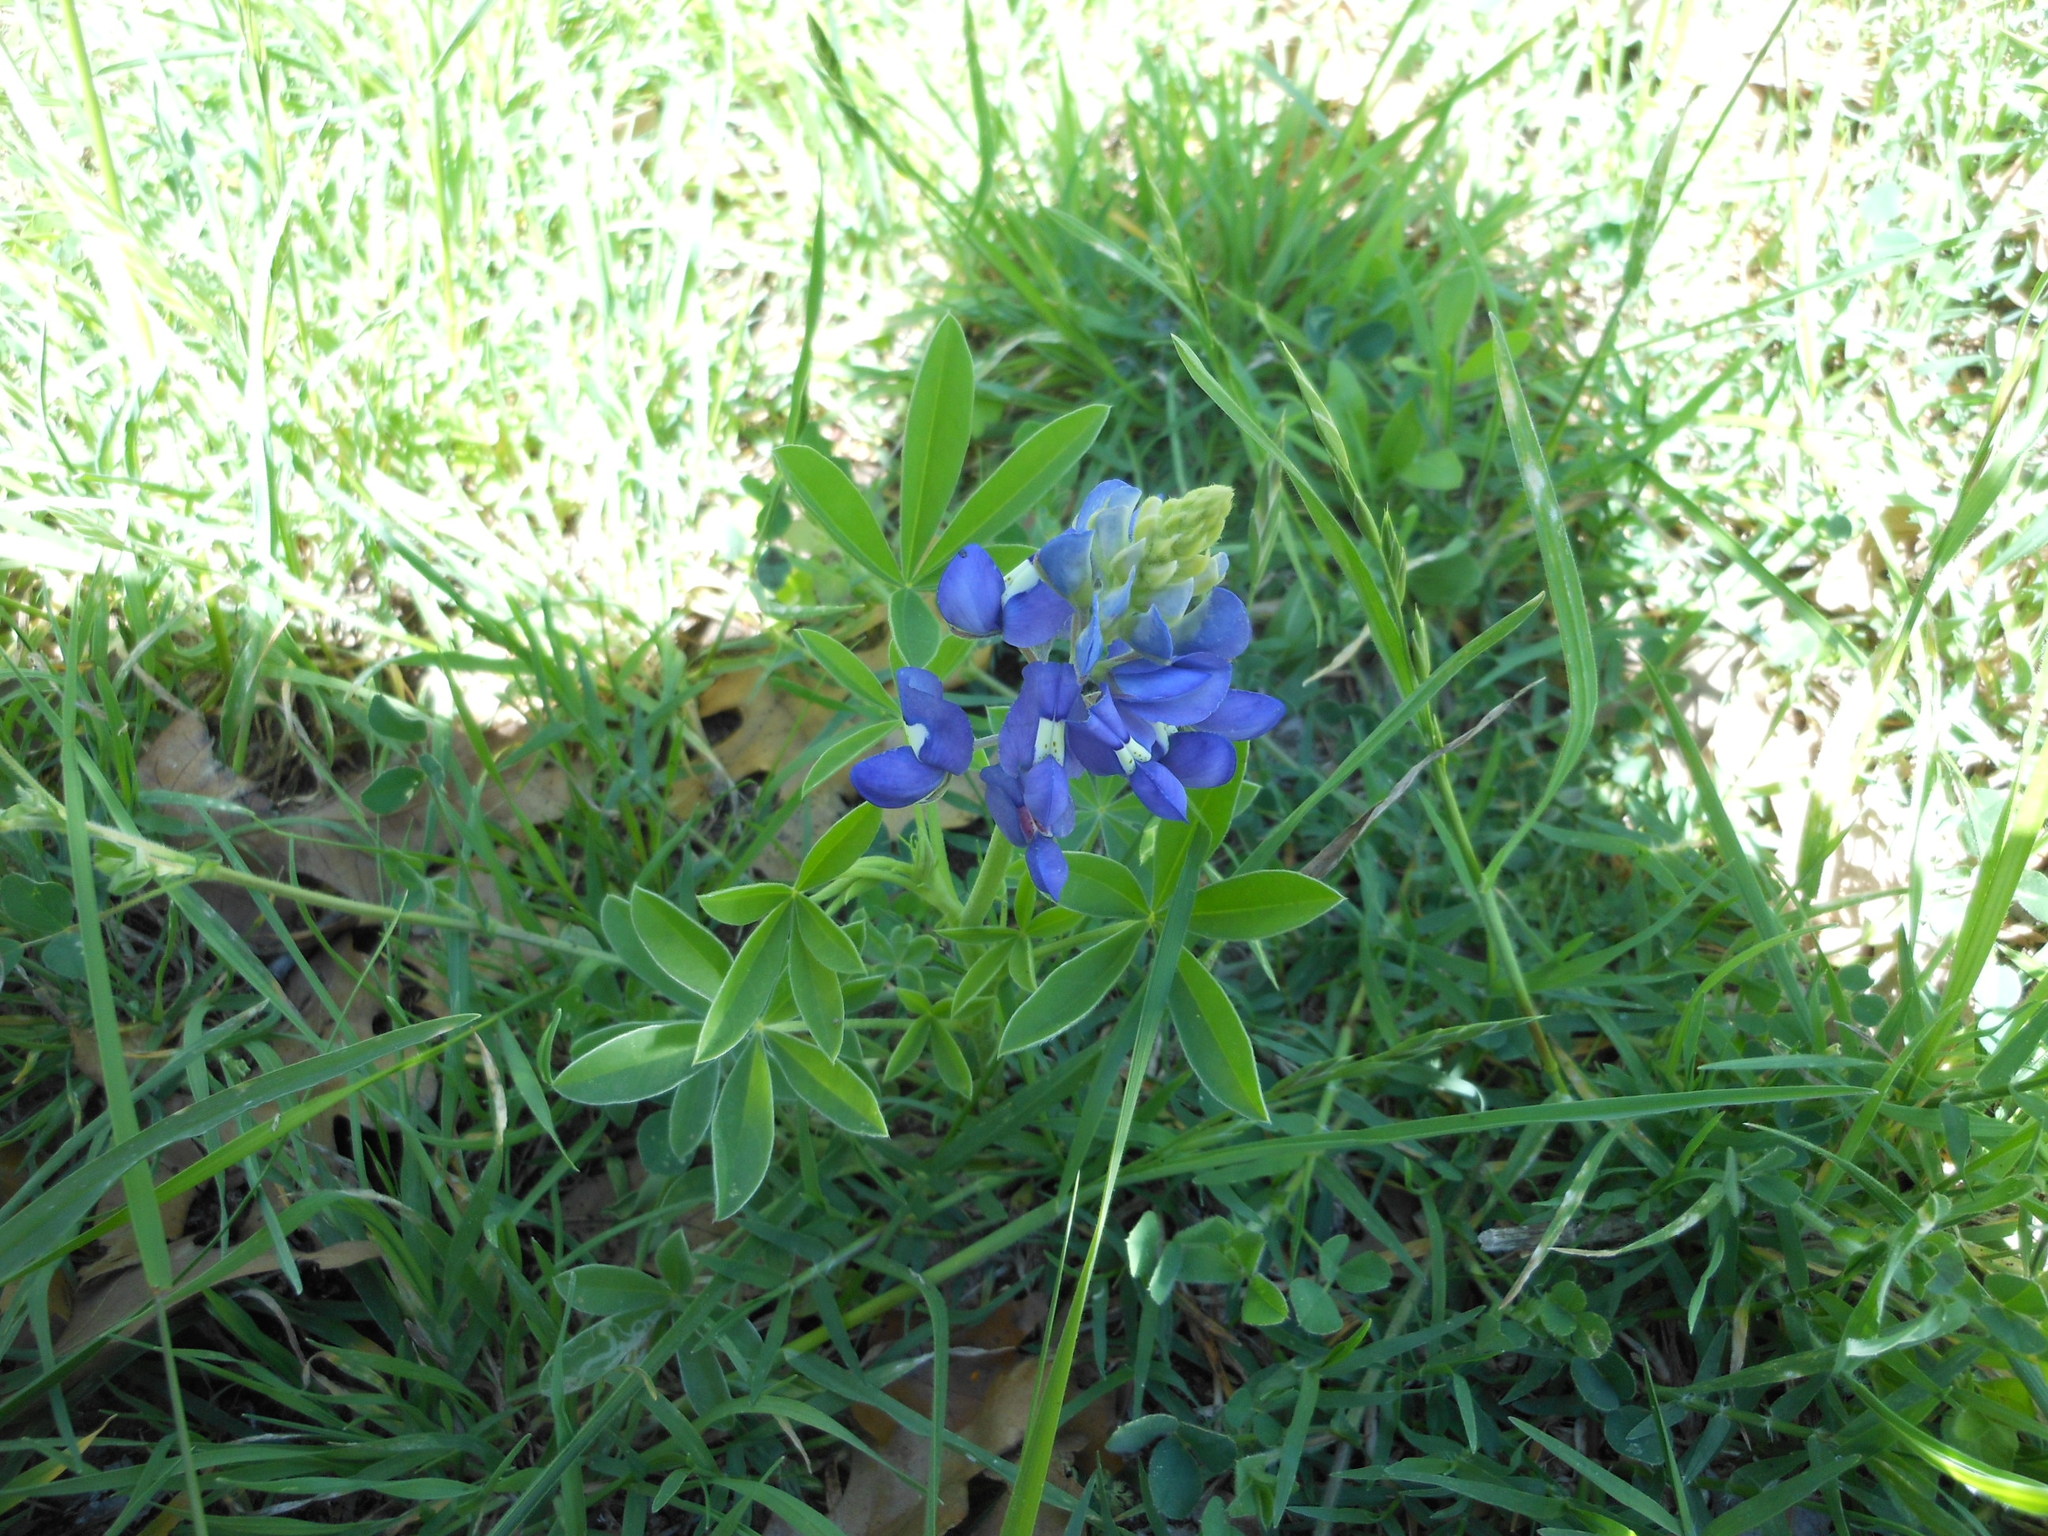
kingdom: Plantae
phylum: Tracheophyta
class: Magnoliopsida
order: Fabales
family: Fabaceae
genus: Lupinus
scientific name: Lupinus texensis
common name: Texas bluebonnet
